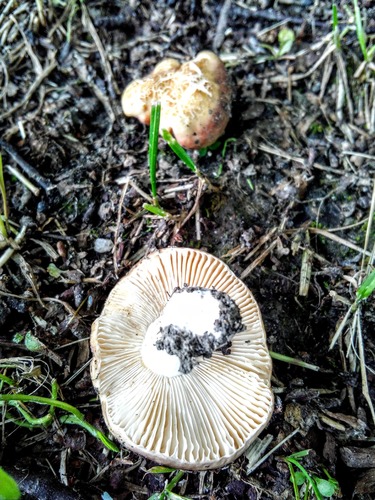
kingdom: Fungi
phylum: Basidiomycota
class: Agaricomycetes
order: Russulales
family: Russulaceae
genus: Russula
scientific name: Russula
